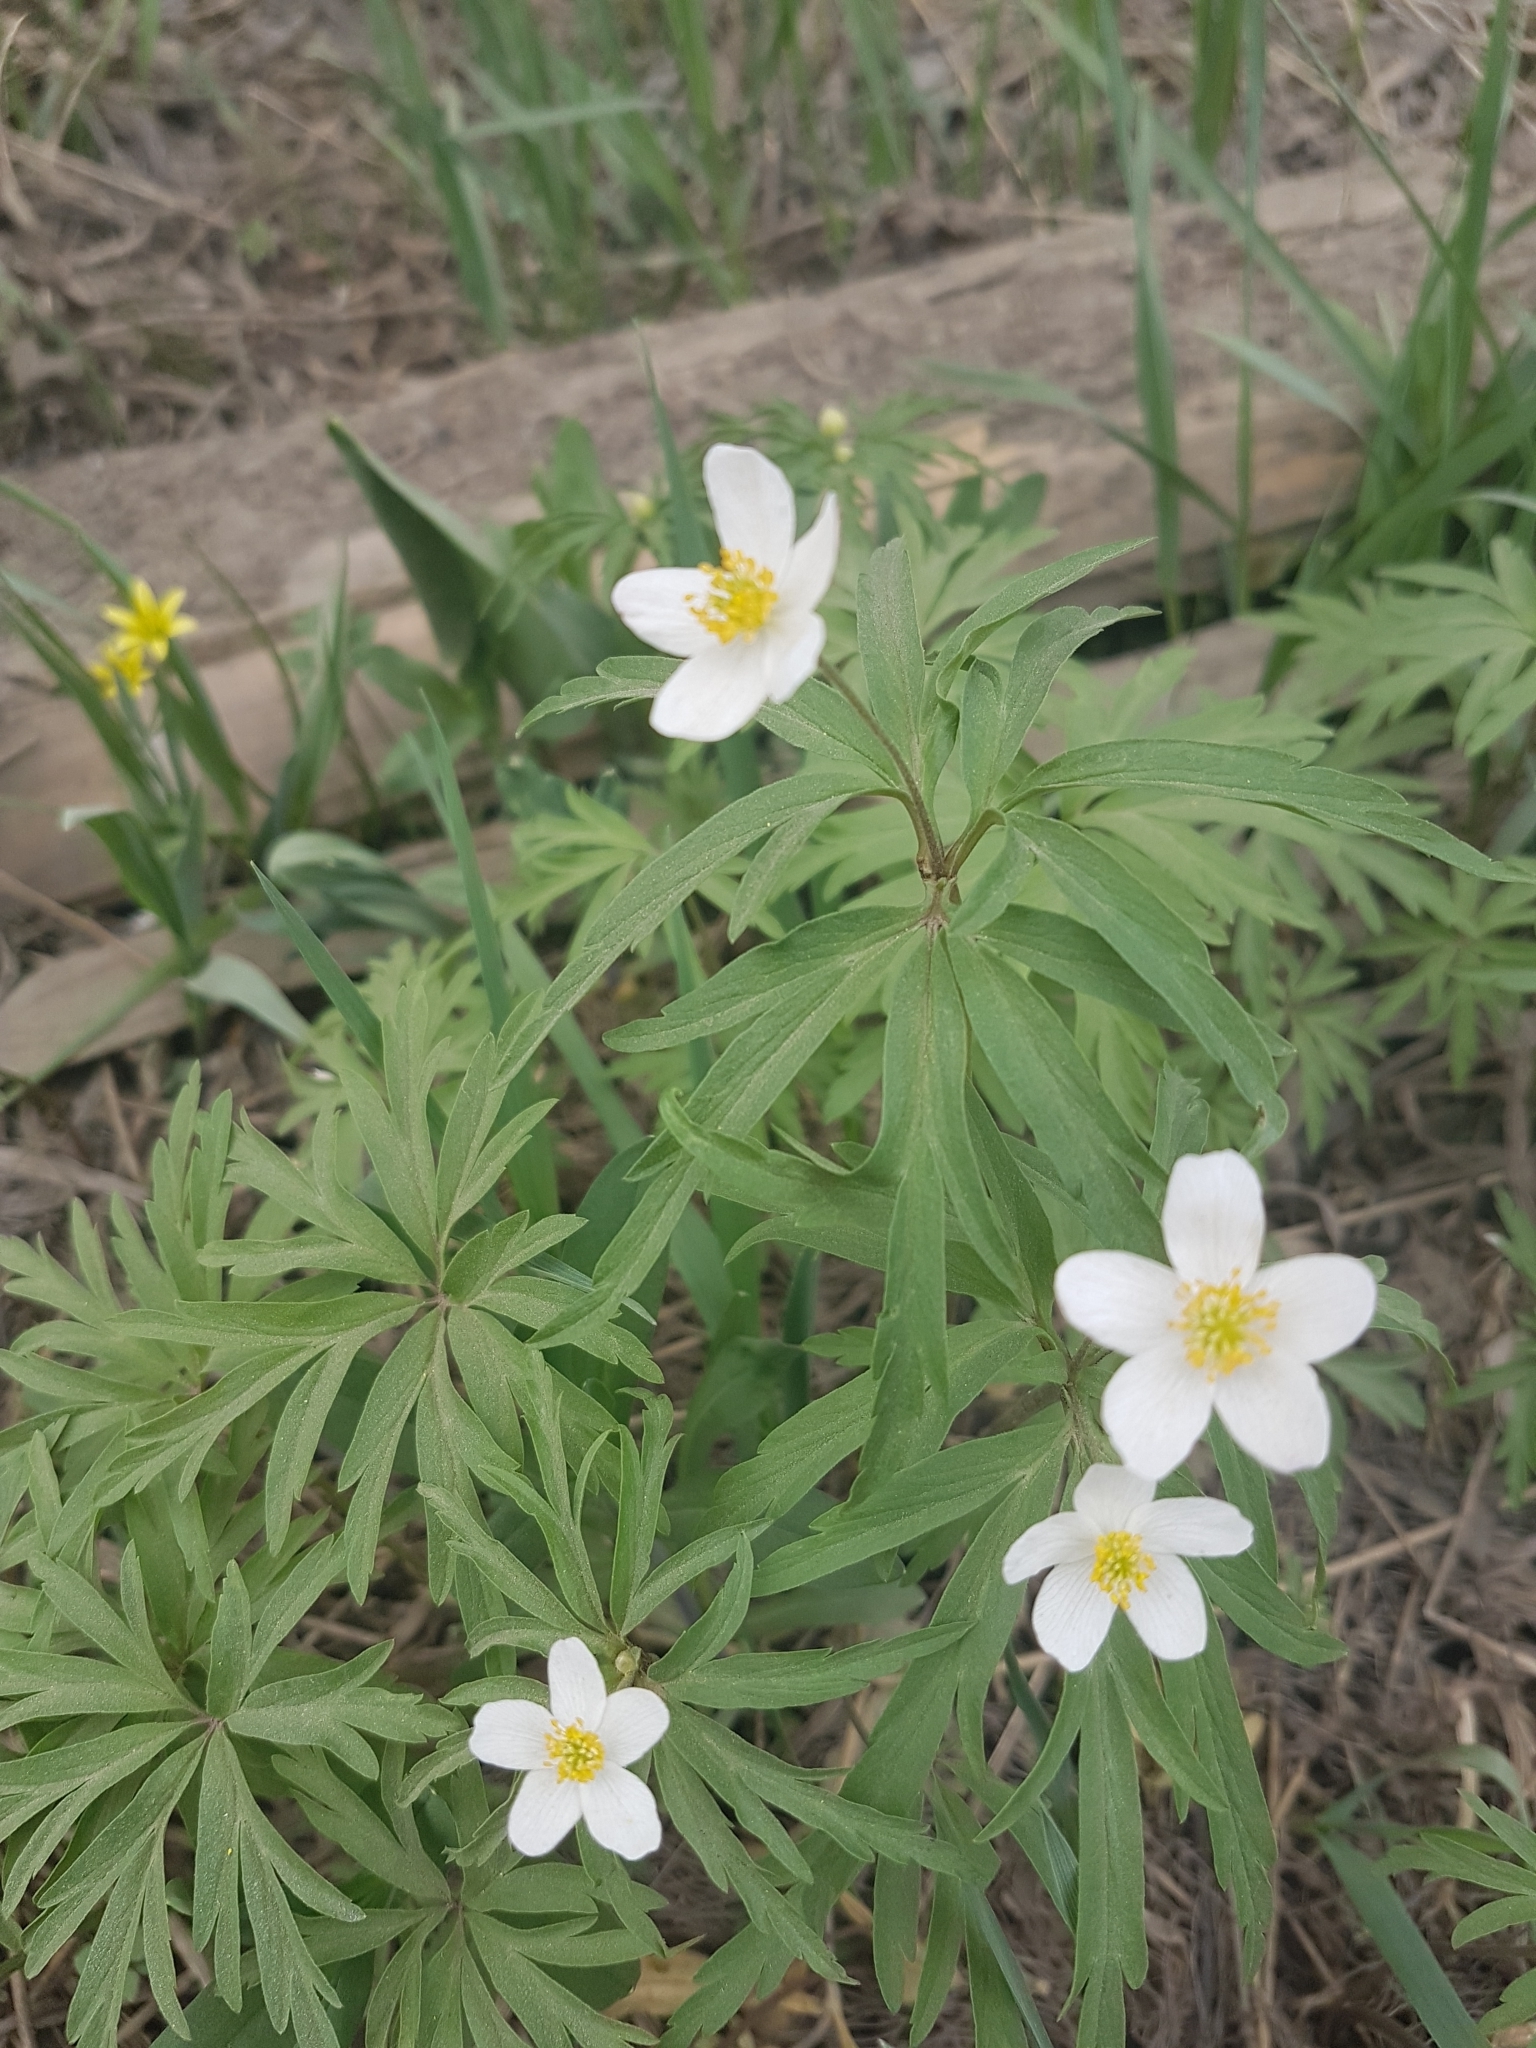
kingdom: Plantae
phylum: Tracheophyta
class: Magnoliopsida
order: Ranunculales
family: Ranunculaceae
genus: Anemone
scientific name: Anemone caerulea
